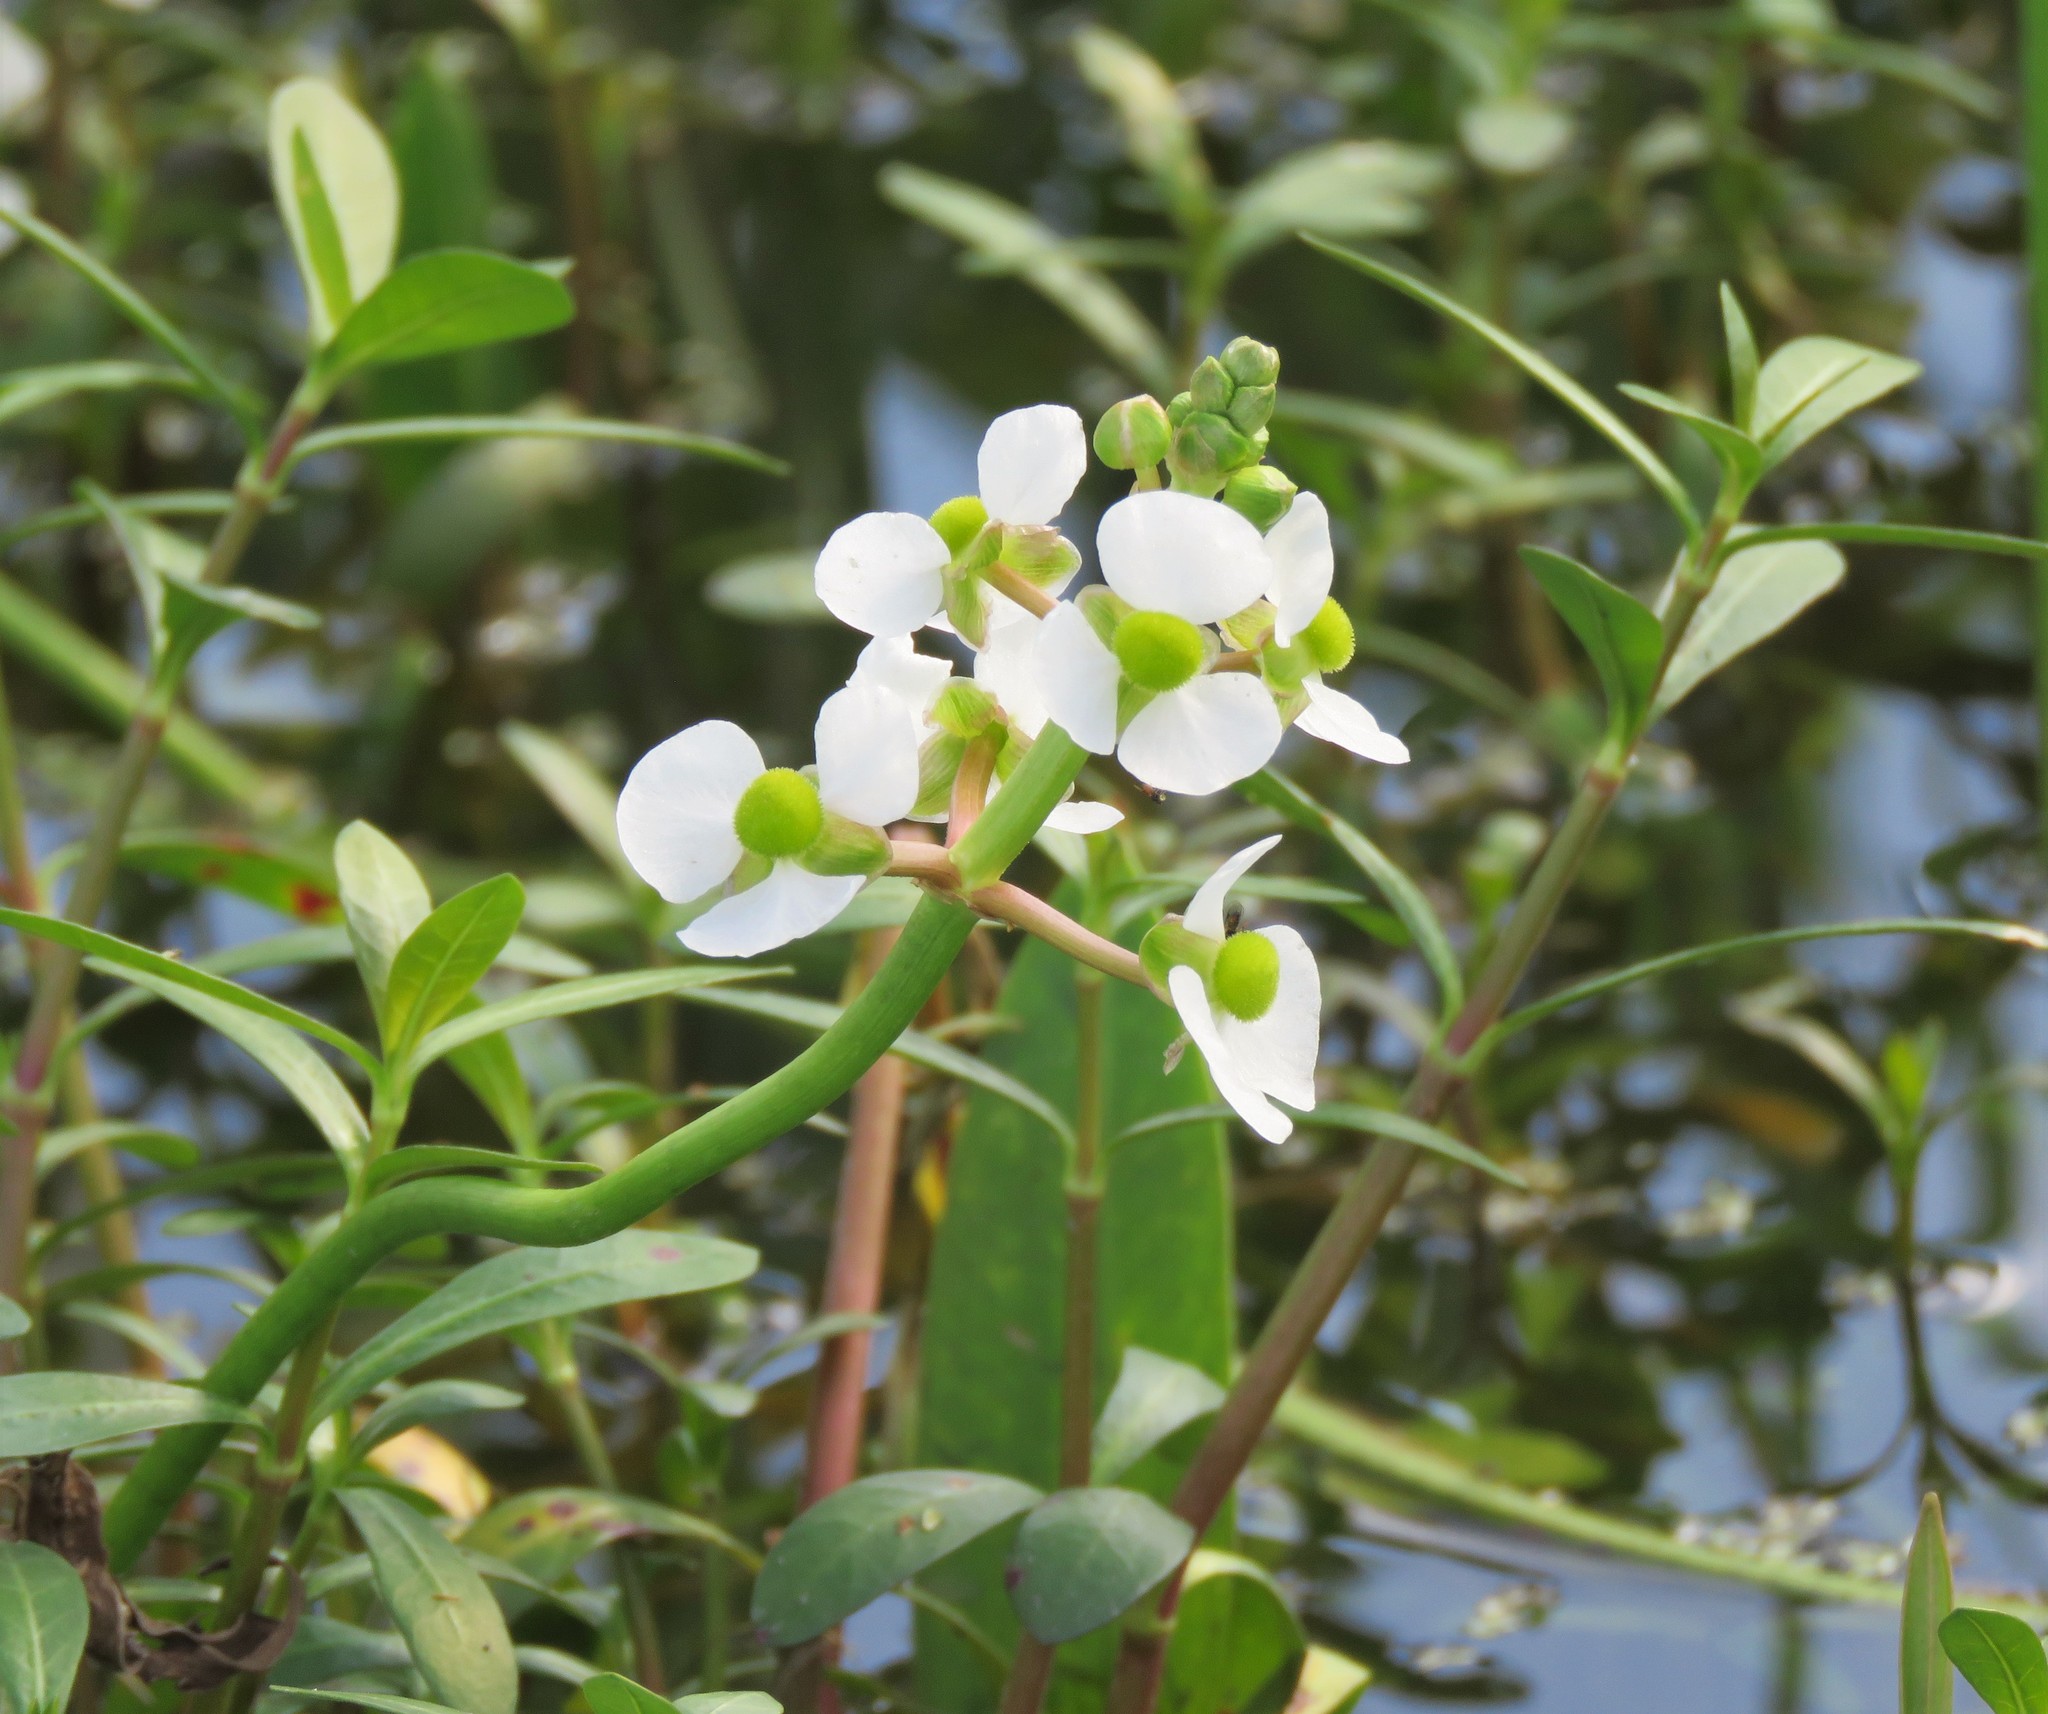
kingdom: Plantae
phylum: Tracheophyta
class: Liliopsida
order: Alismatales
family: Alismataceae
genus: Sagittaria
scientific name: Sagittaria platyphylla
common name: Broad-leaf arrowhead
